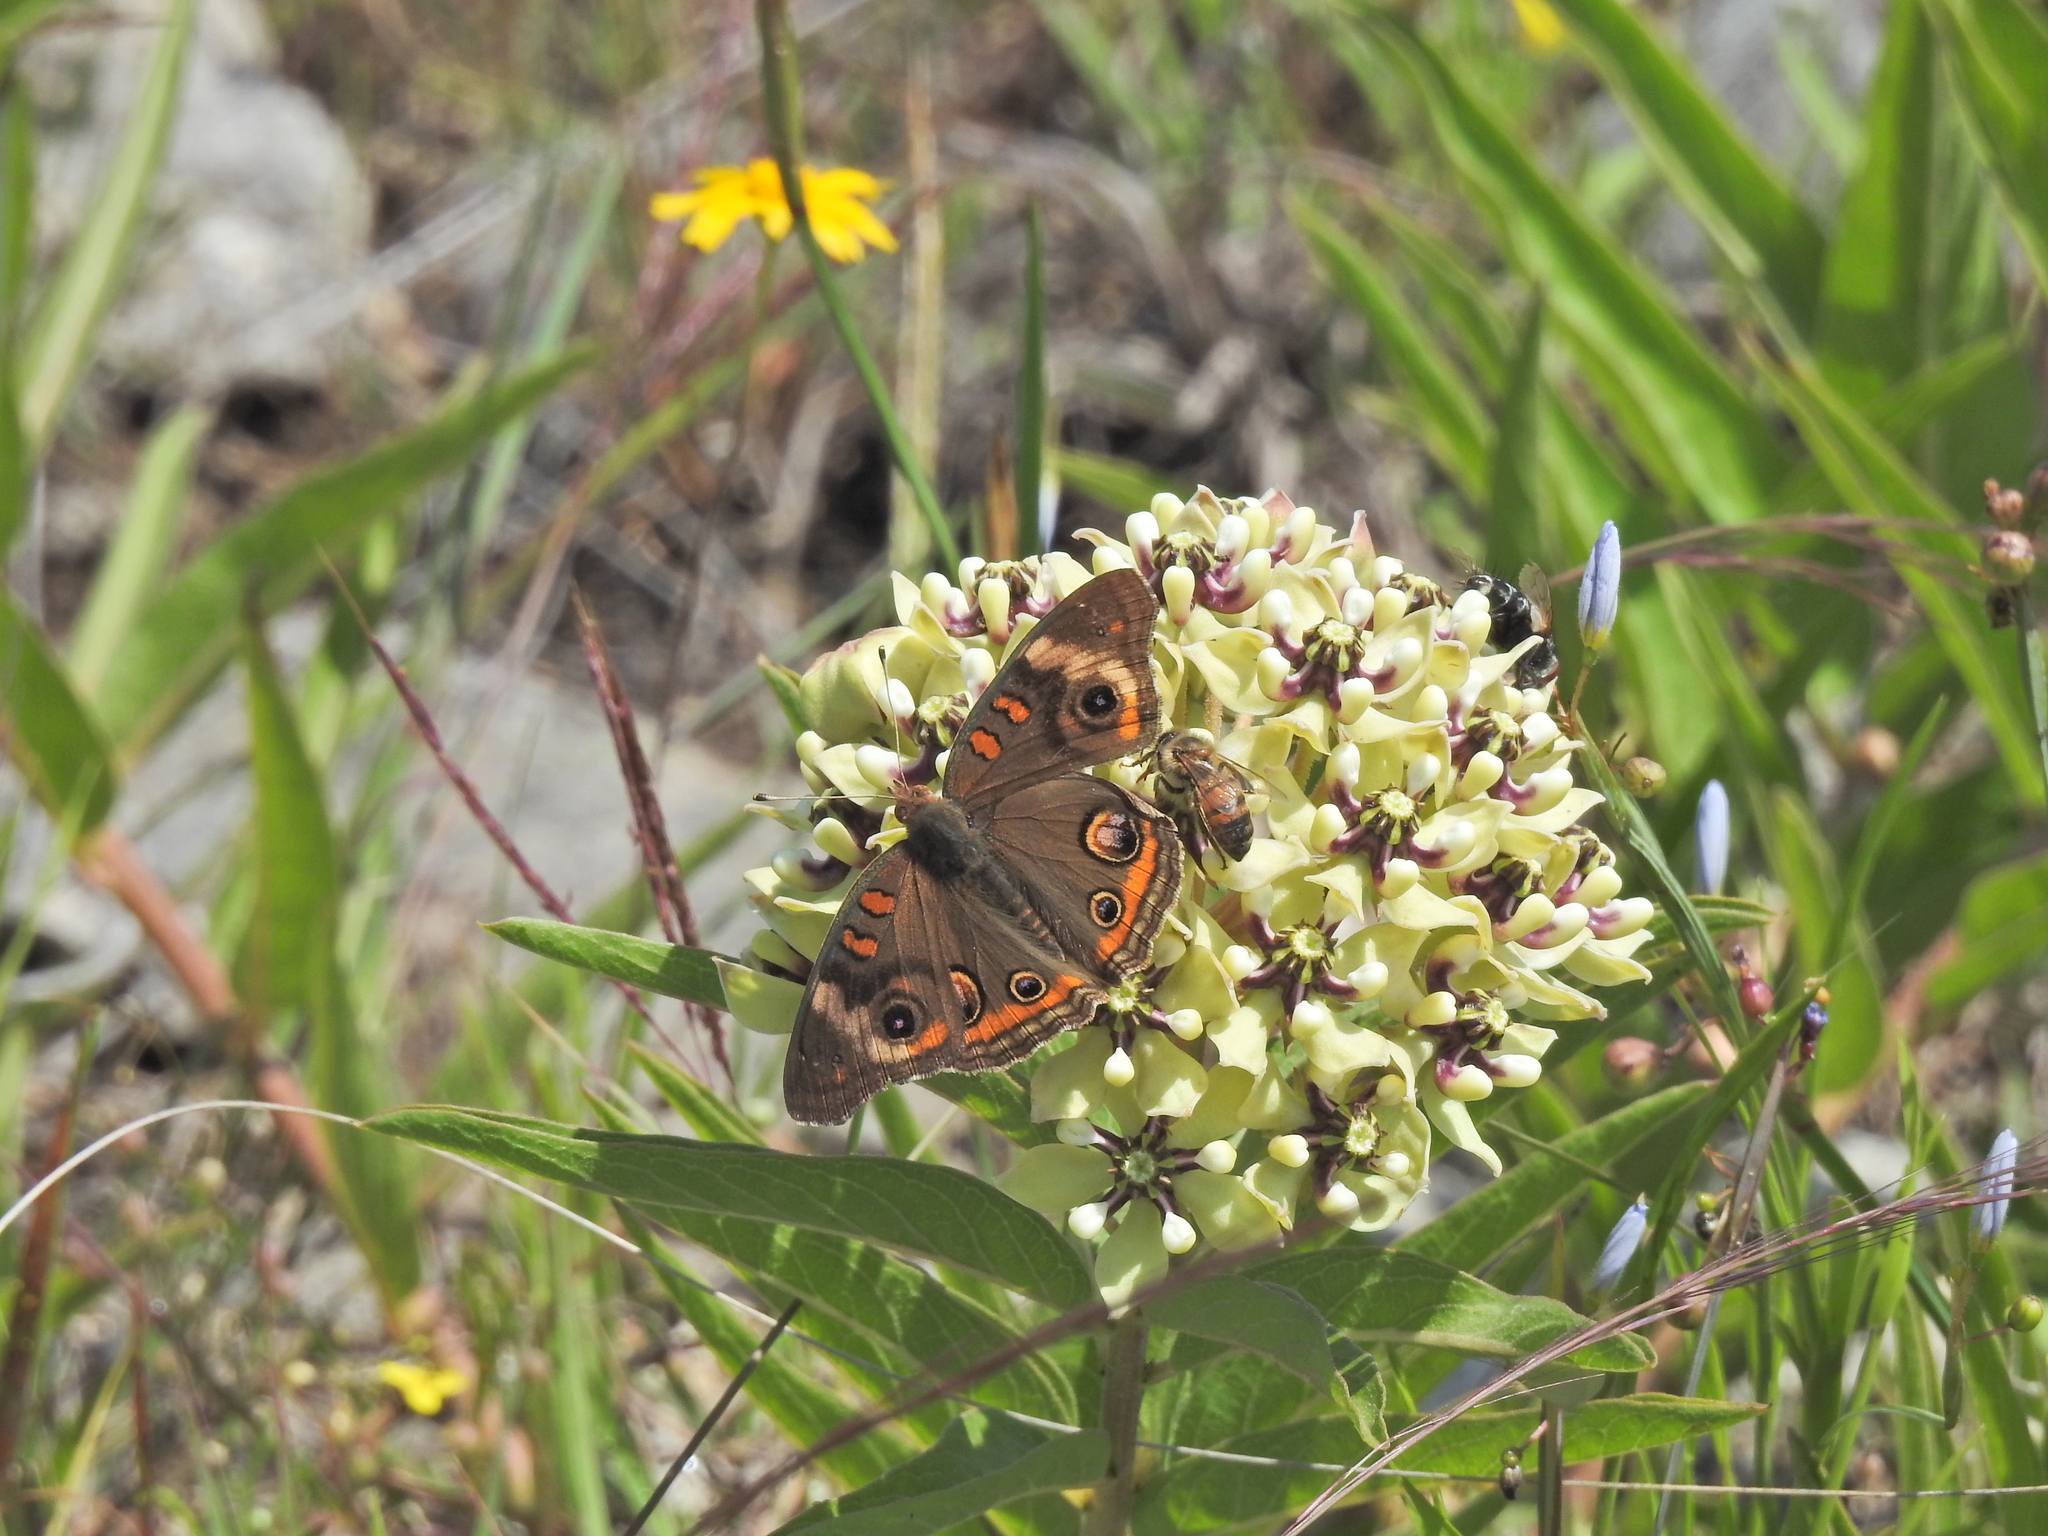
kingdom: Animalia
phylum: Arthropoda
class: Insecta
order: Lepidoptera
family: Nymphalidae
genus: Junonia
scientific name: Junonia coenia
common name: Common buckeye
